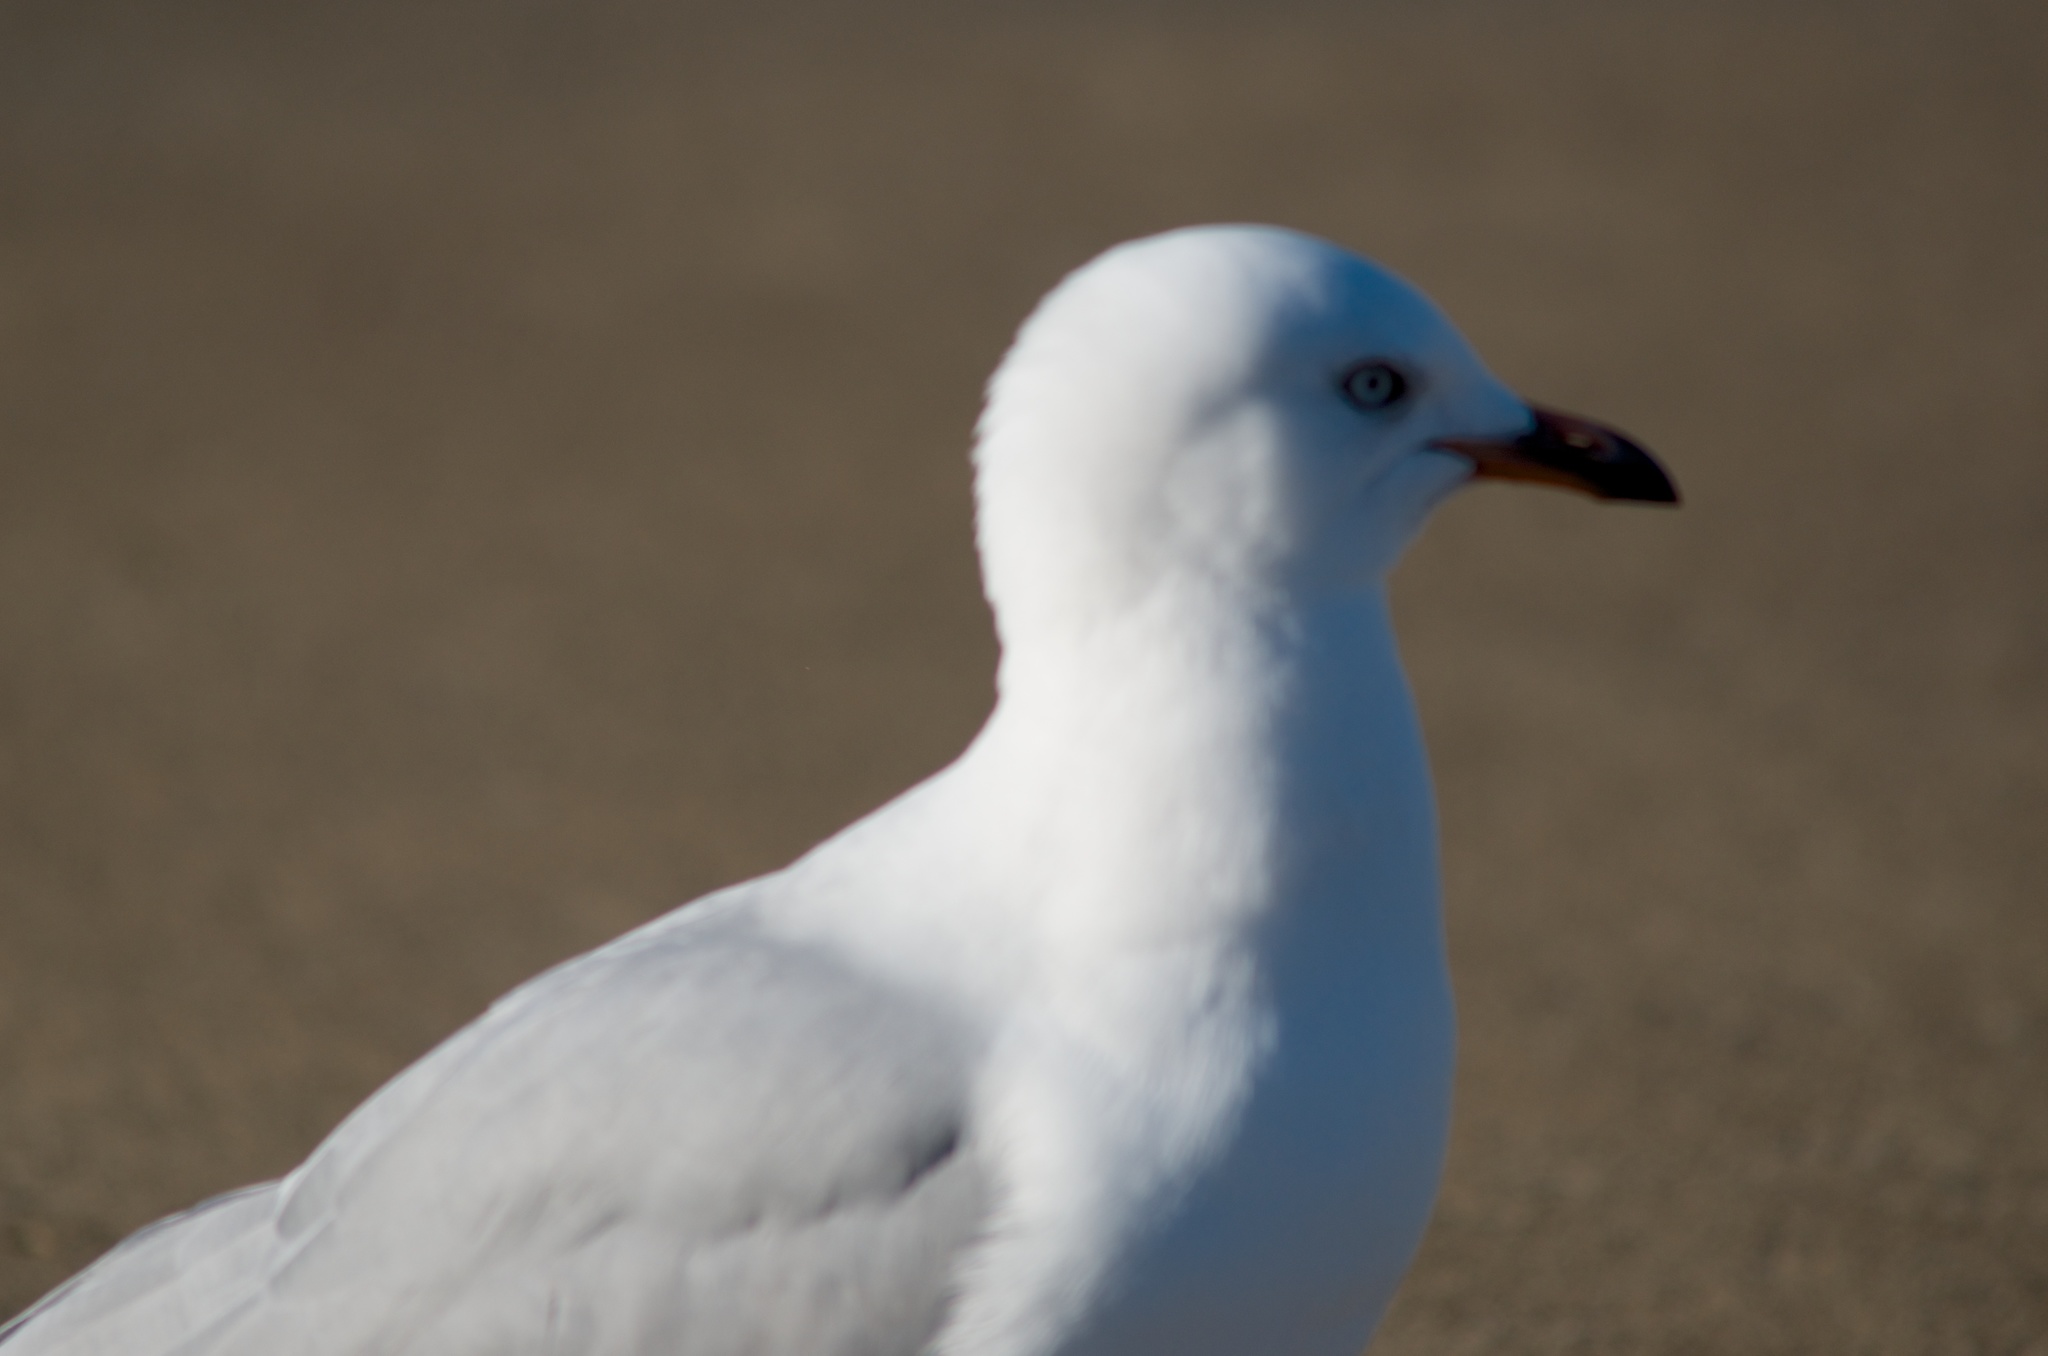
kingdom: Animalia
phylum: Chordata
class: Aves
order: Charadriiformes
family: Laridae
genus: Chroicocephalus
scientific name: Chroicocephalus novaehollandiae
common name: Silver gull
